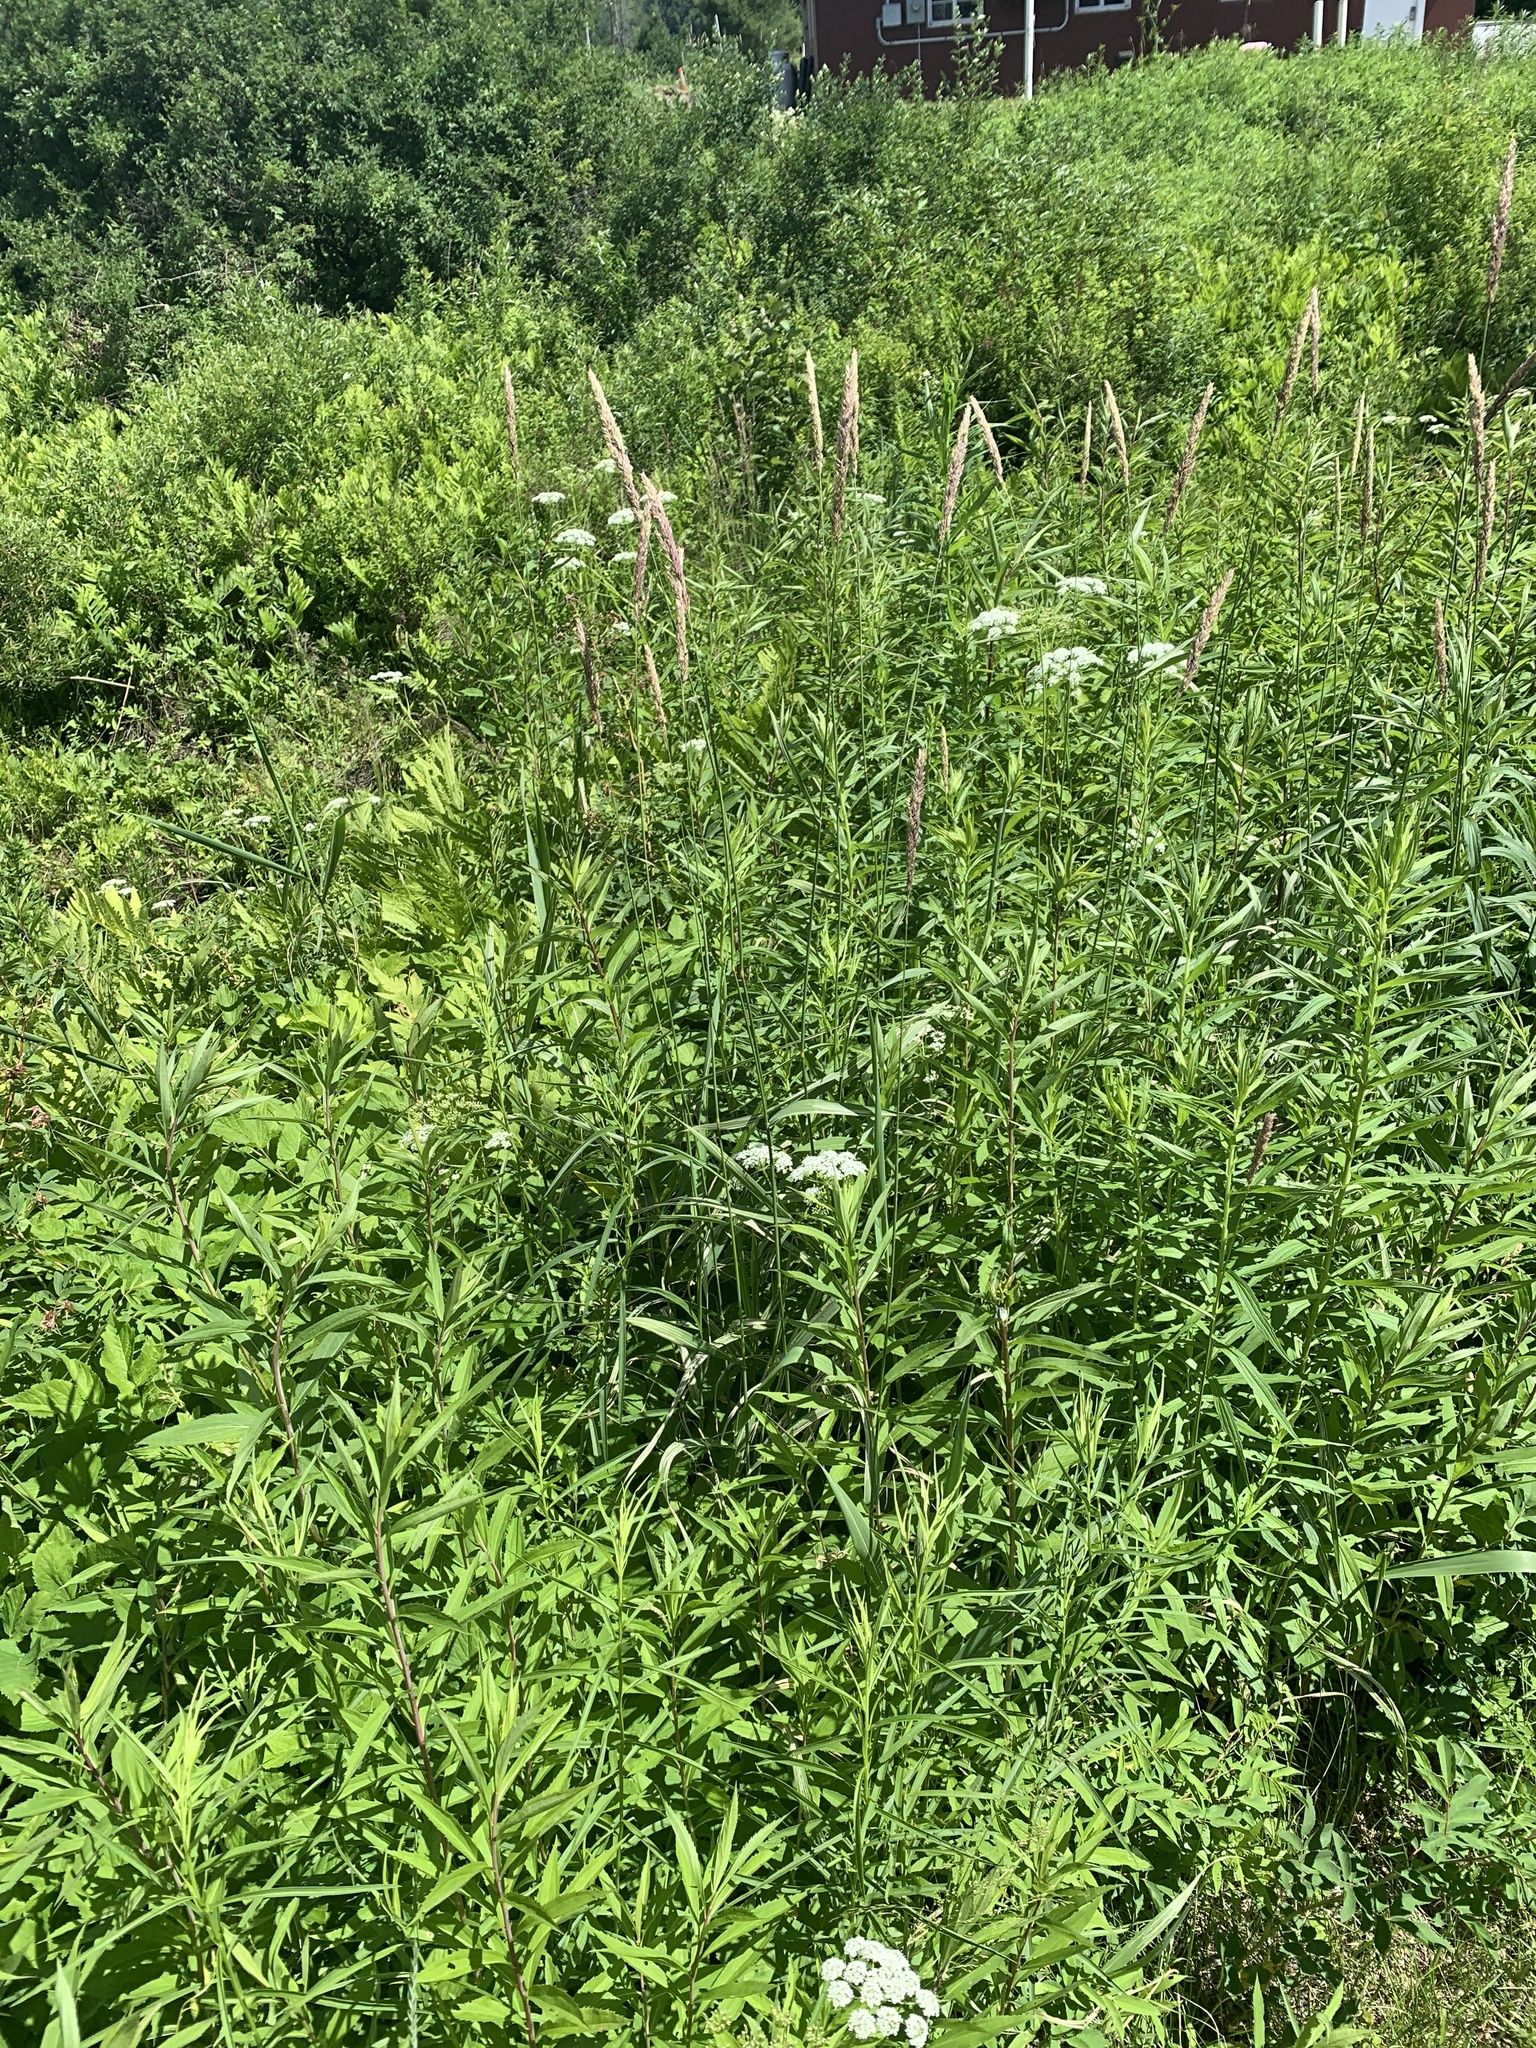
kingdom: Plantae
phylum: Tracheophyta
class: Liliopsida
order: Poales
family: Poaceae
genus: Phalaris
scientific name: Phalaris arundinacea
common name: Reed canary-grass
